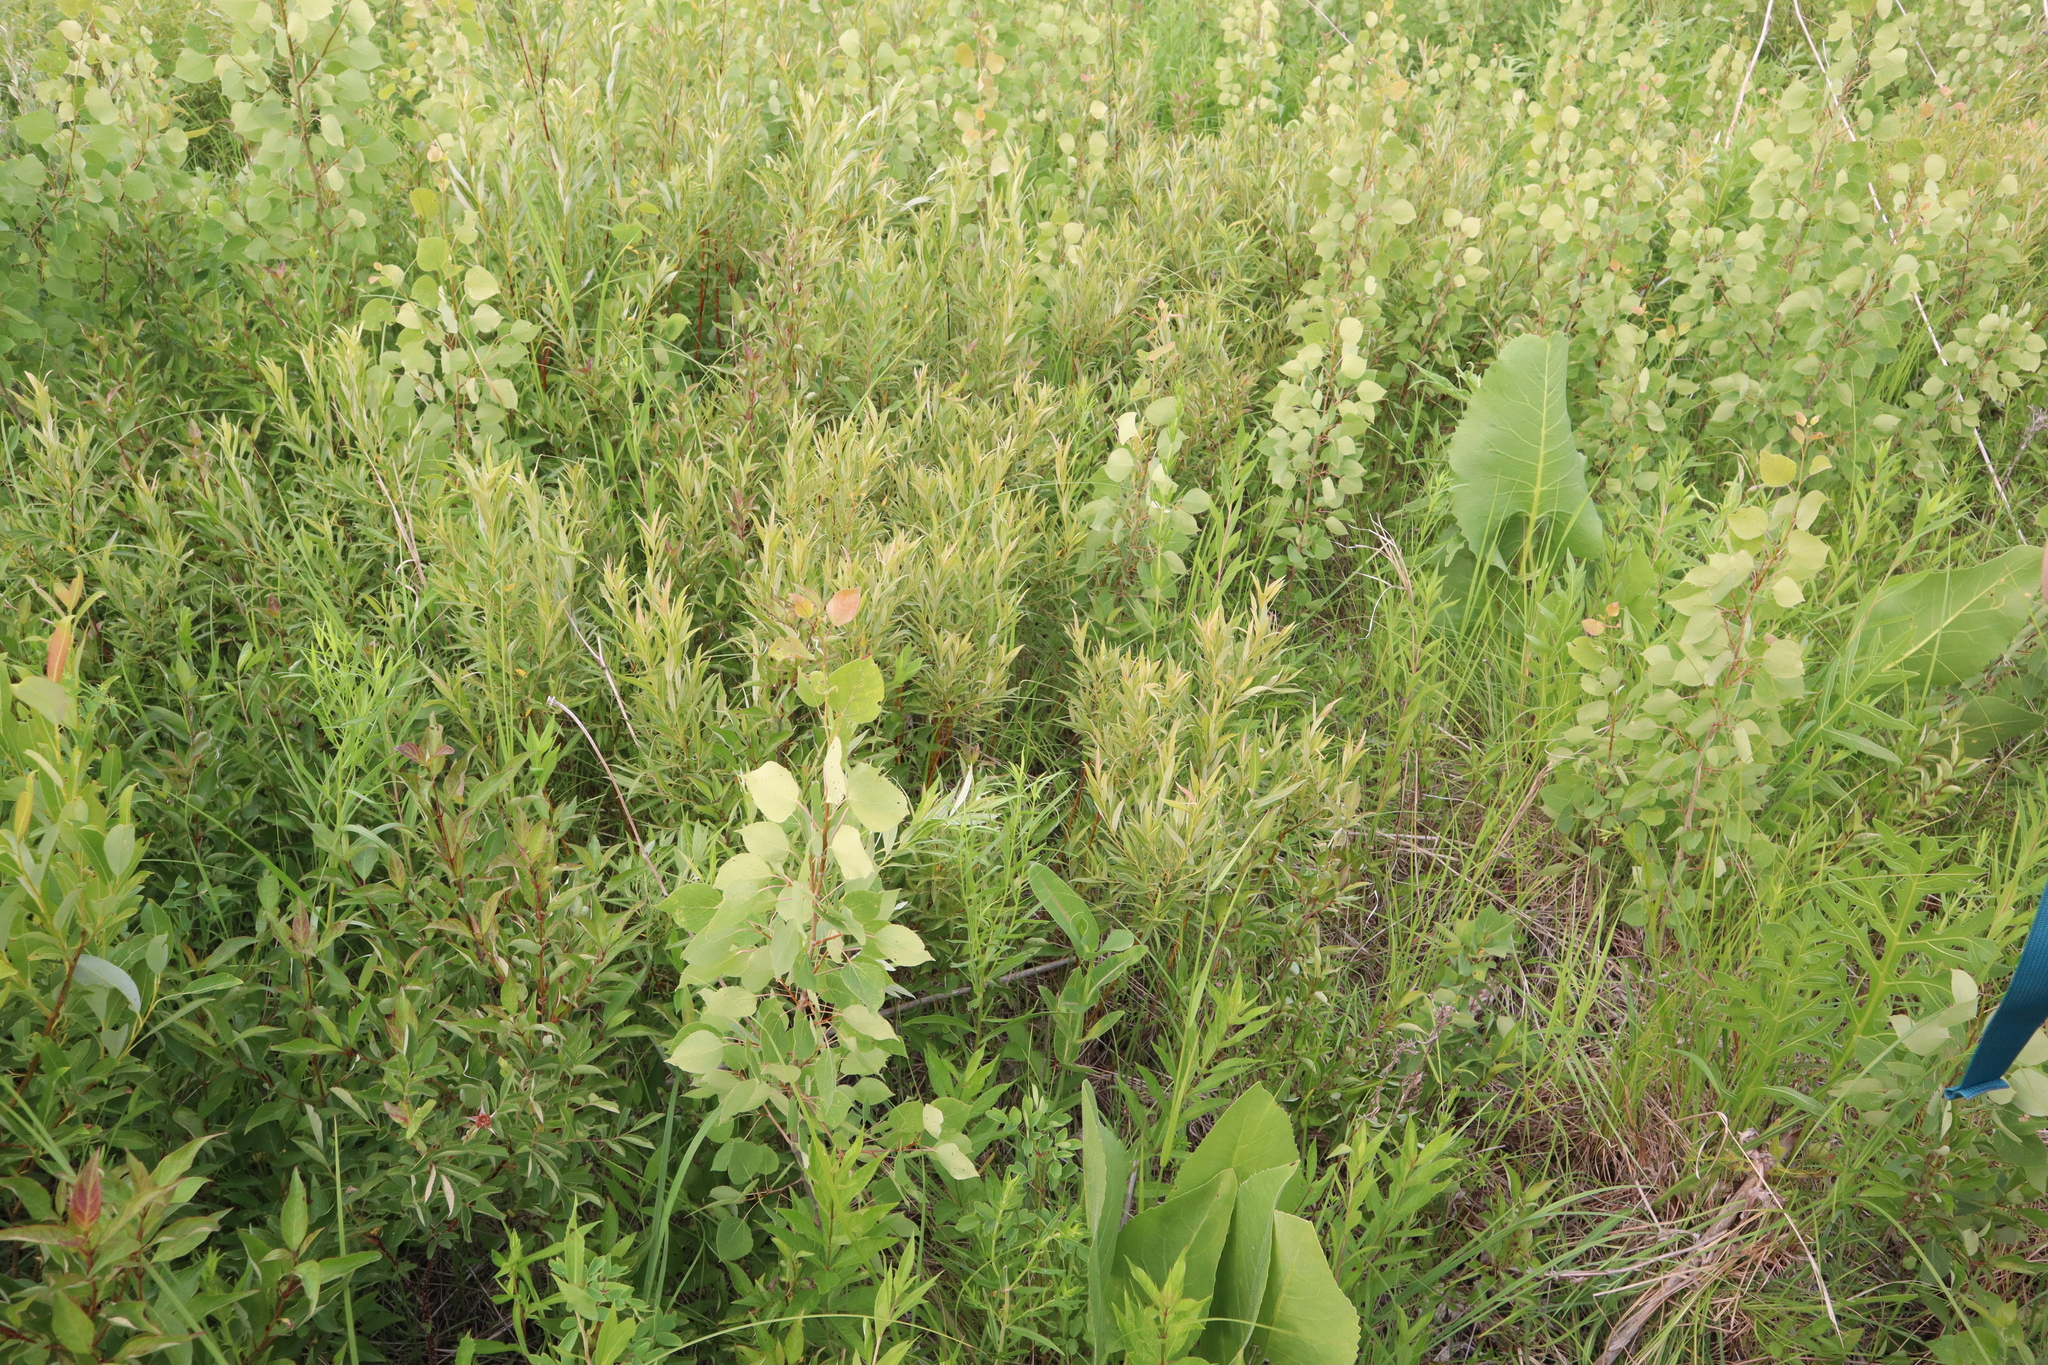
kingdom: Plantae
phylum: Tracheophyta
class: Magnoliopsida
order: Gentianales
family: Apocynaceae
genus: Asclepias
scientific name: Asclepias sullivantii
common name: Prairie milkweed
